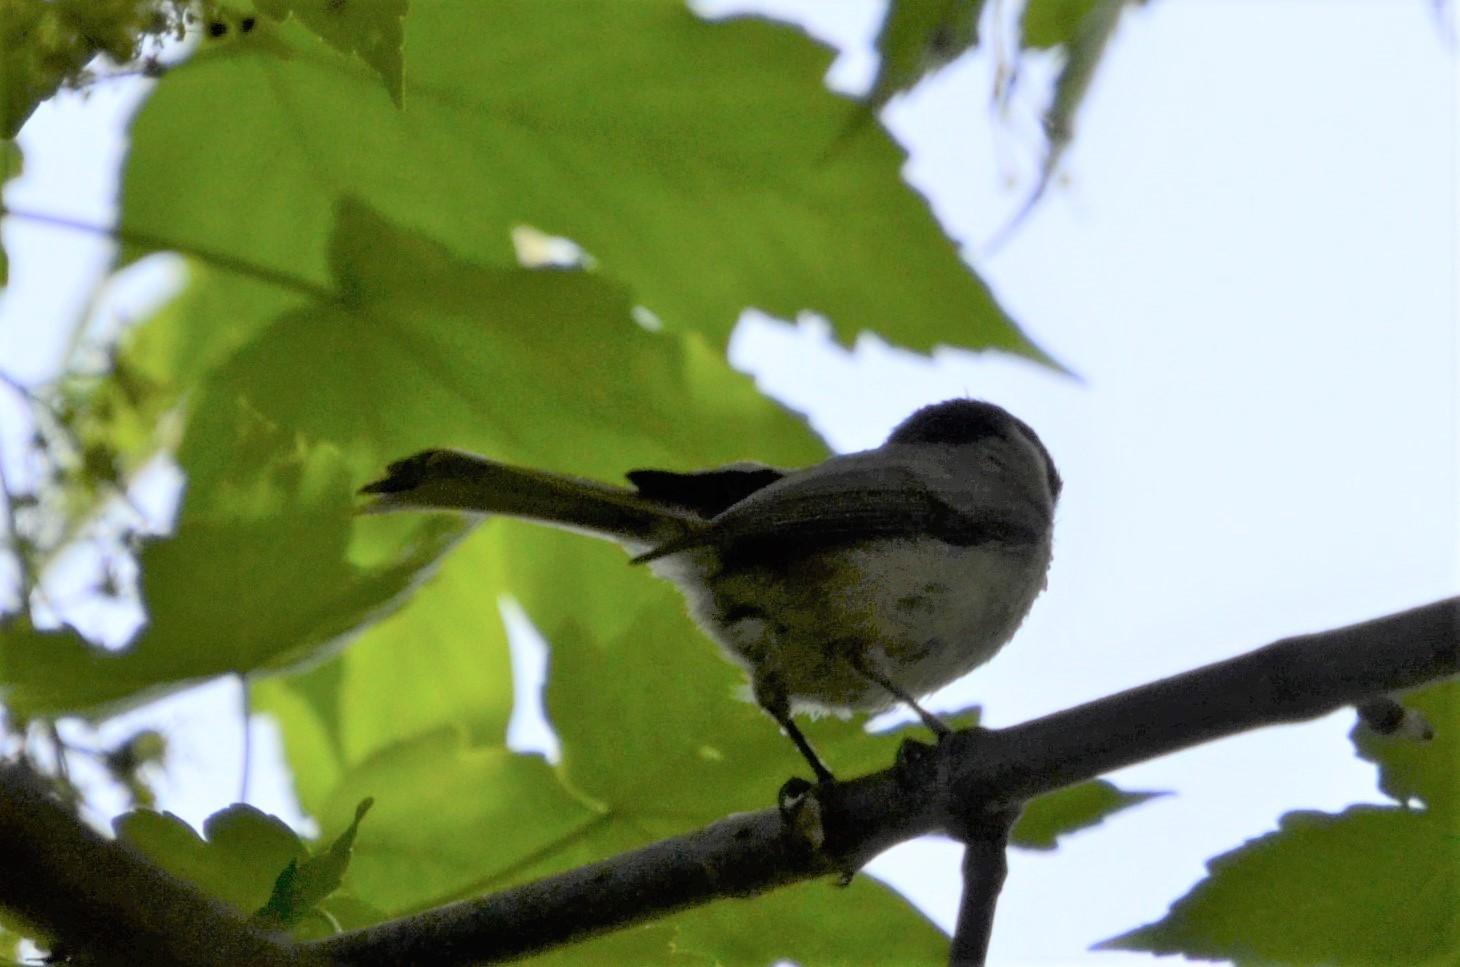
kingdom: Animalia
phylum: Chordata
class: Aves
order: Passeriformes
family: Paridae
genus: Poecile
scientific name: Poecile palustris
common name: Marsh tit
